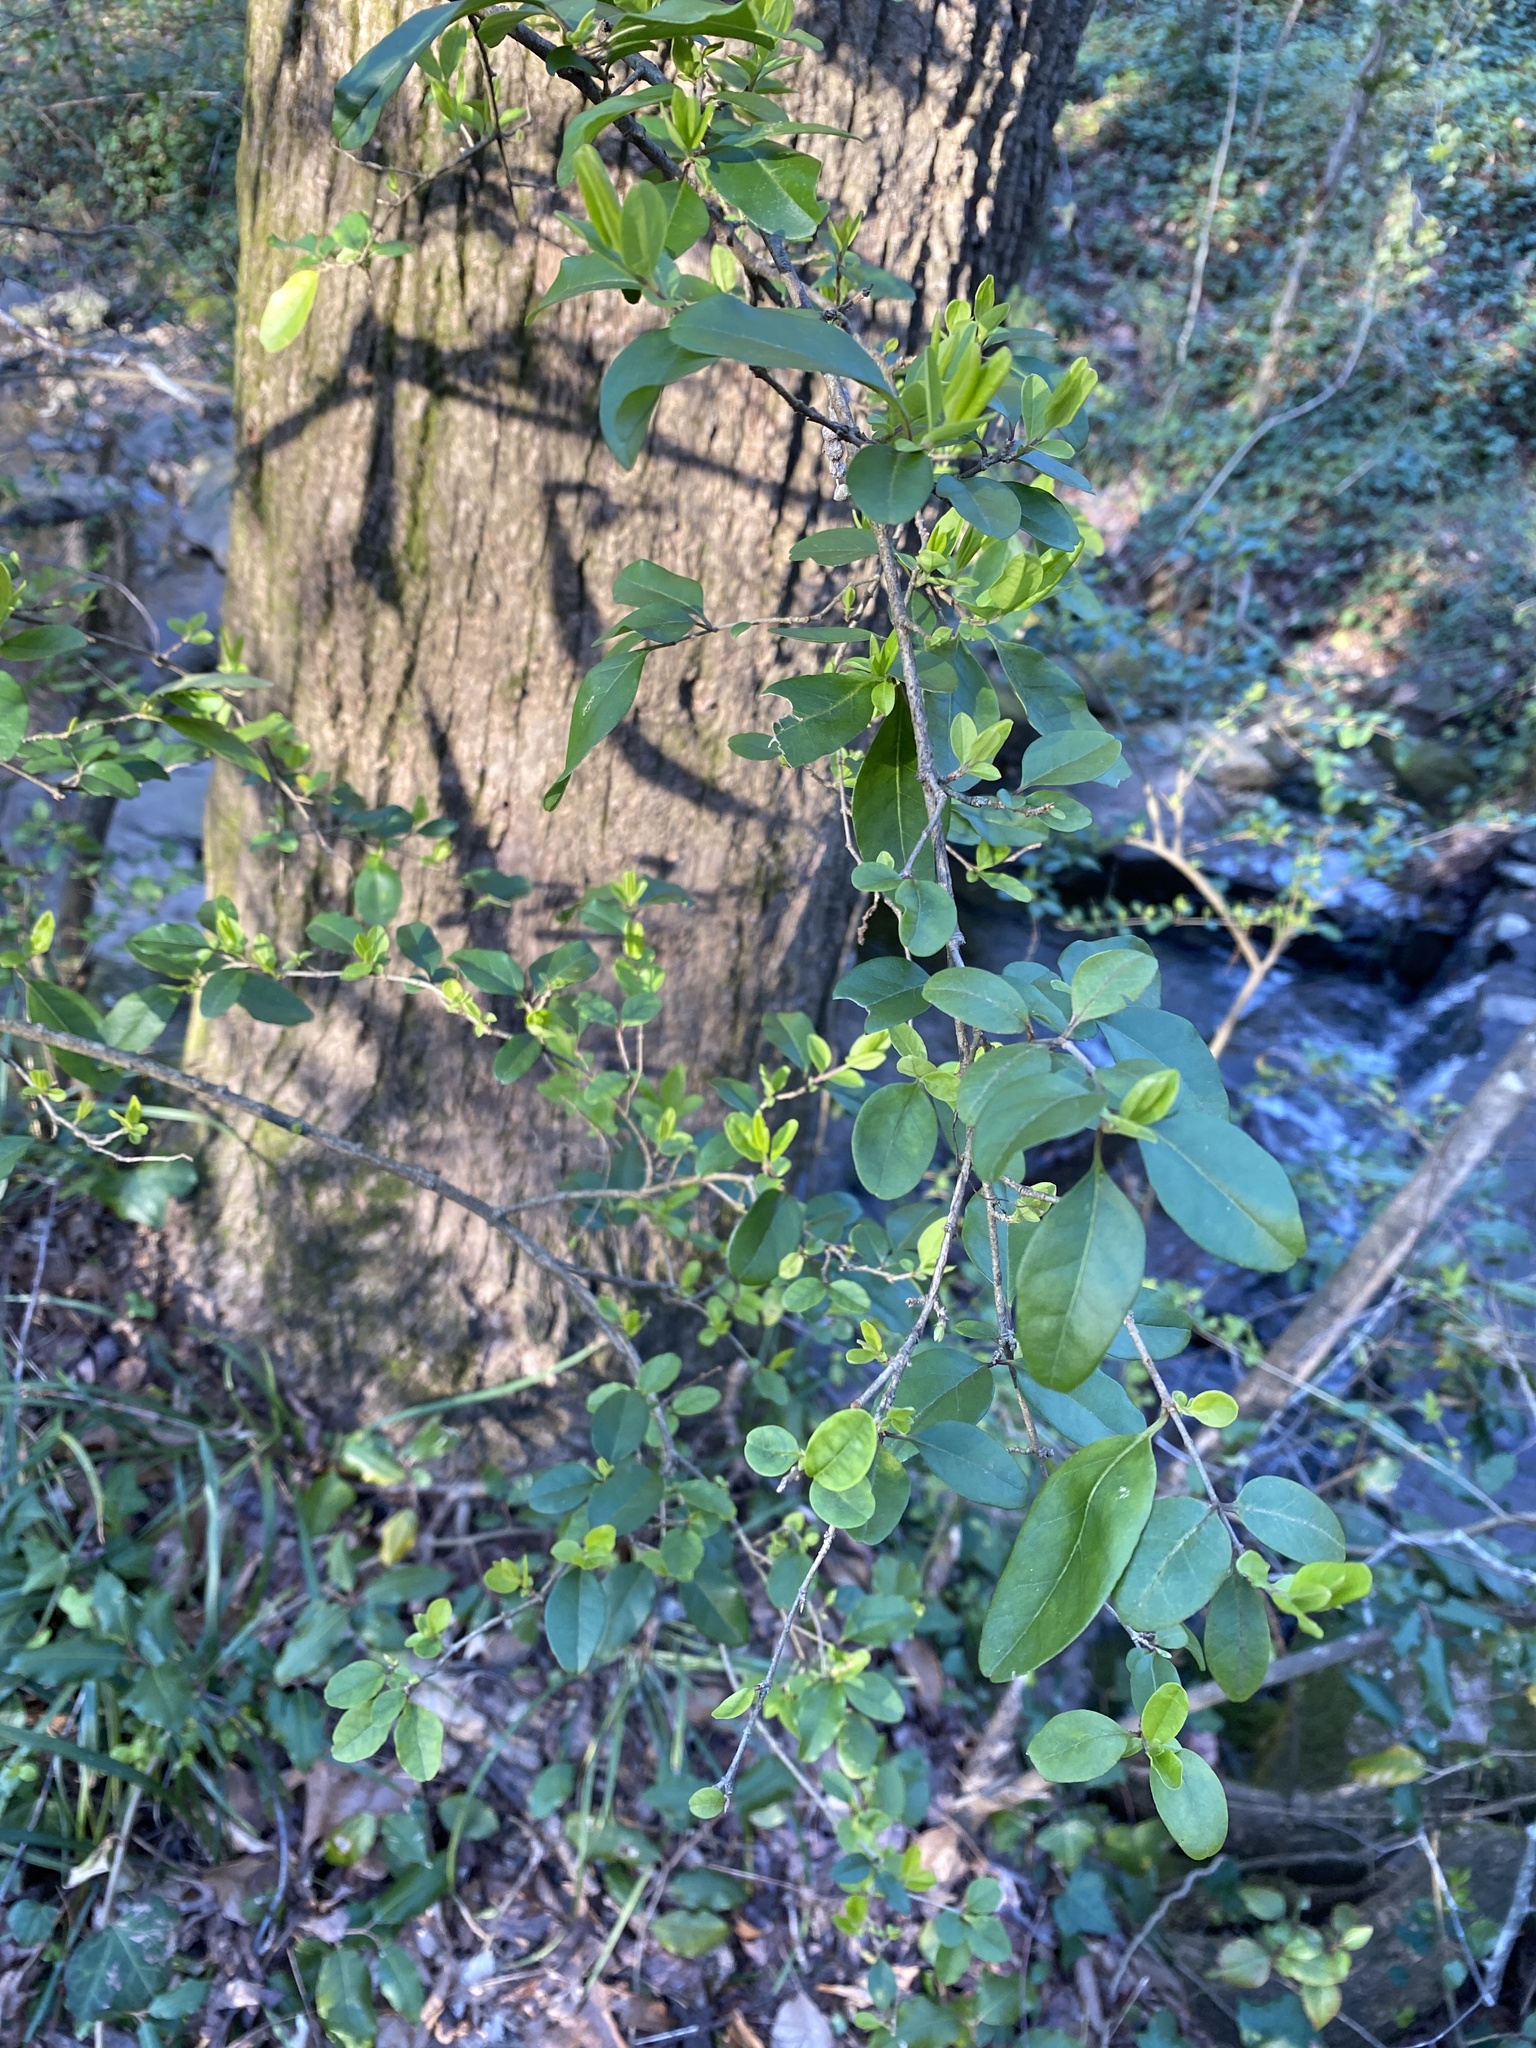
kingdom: Plantae
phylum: Tracheophyta
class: Magnoliopsida
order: Lamiales
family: Oleaceae
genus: Ligustrum
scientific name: Ligustrum sinense
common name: Chinese privet
